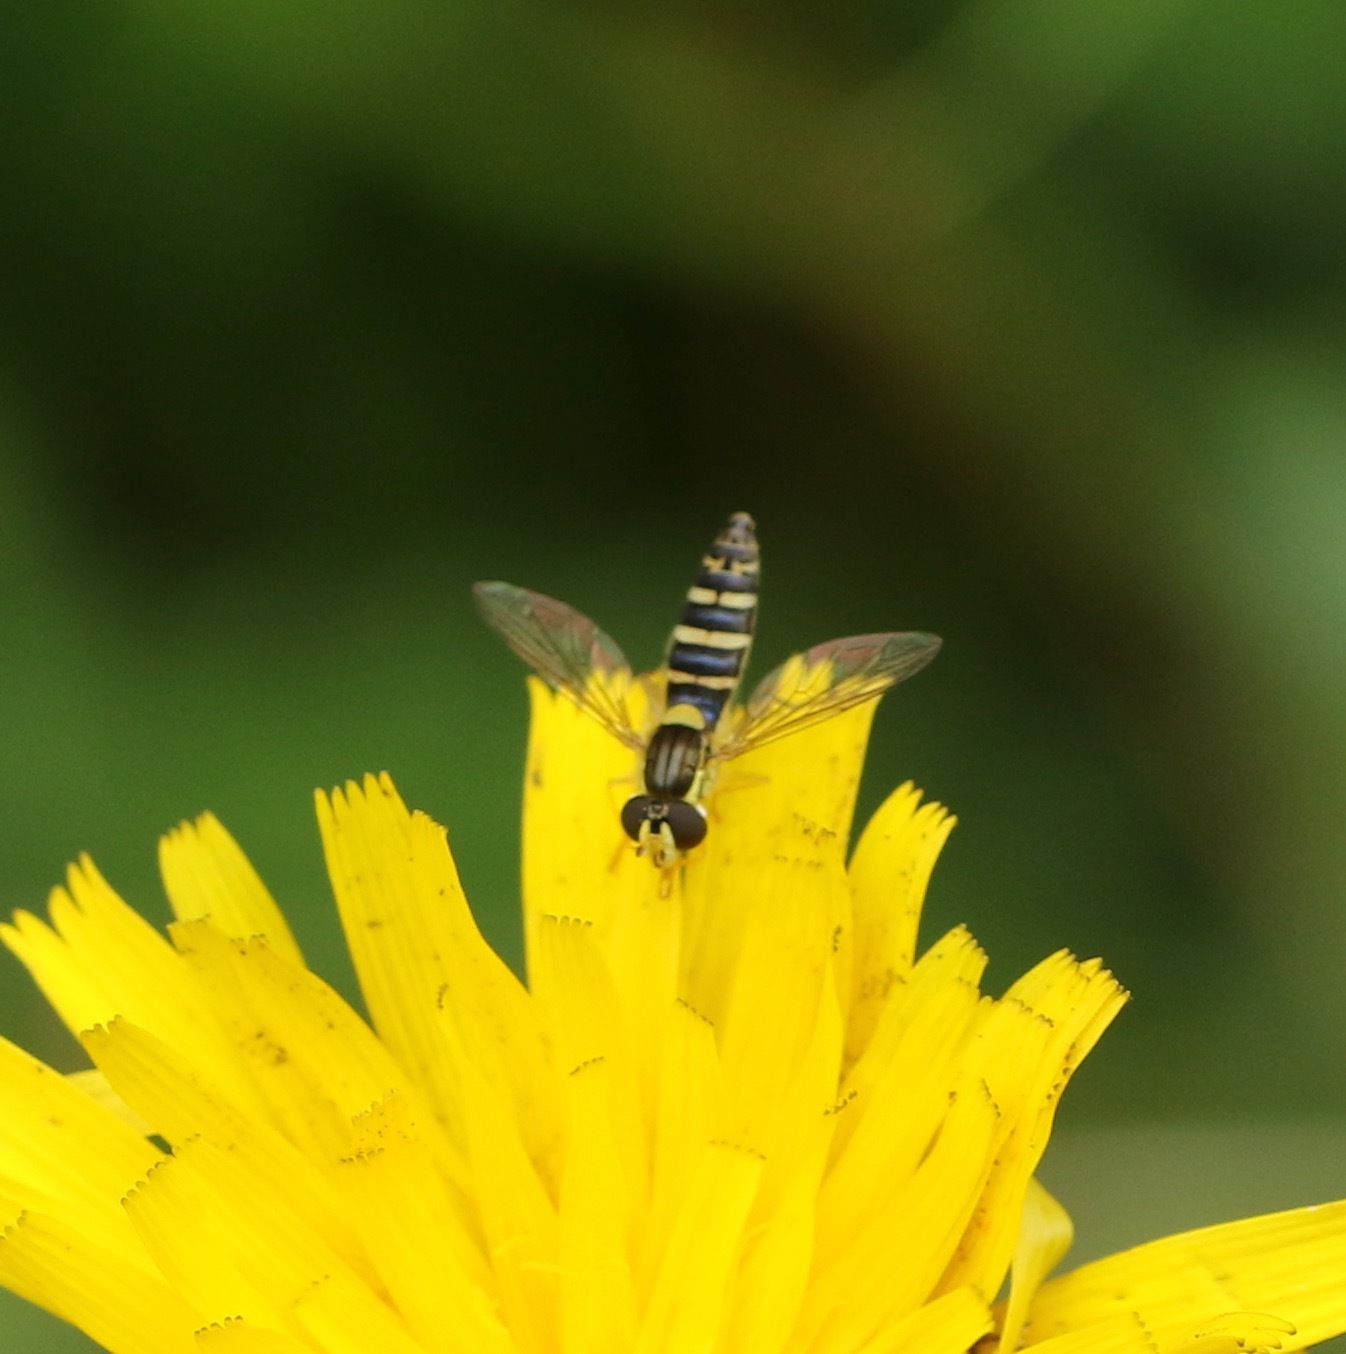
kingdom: Animalia
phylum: Arthropoda
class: Insecta
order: Diptera
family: Syrphidae
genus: Sphaerophoria
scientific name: Sphaerophoria
